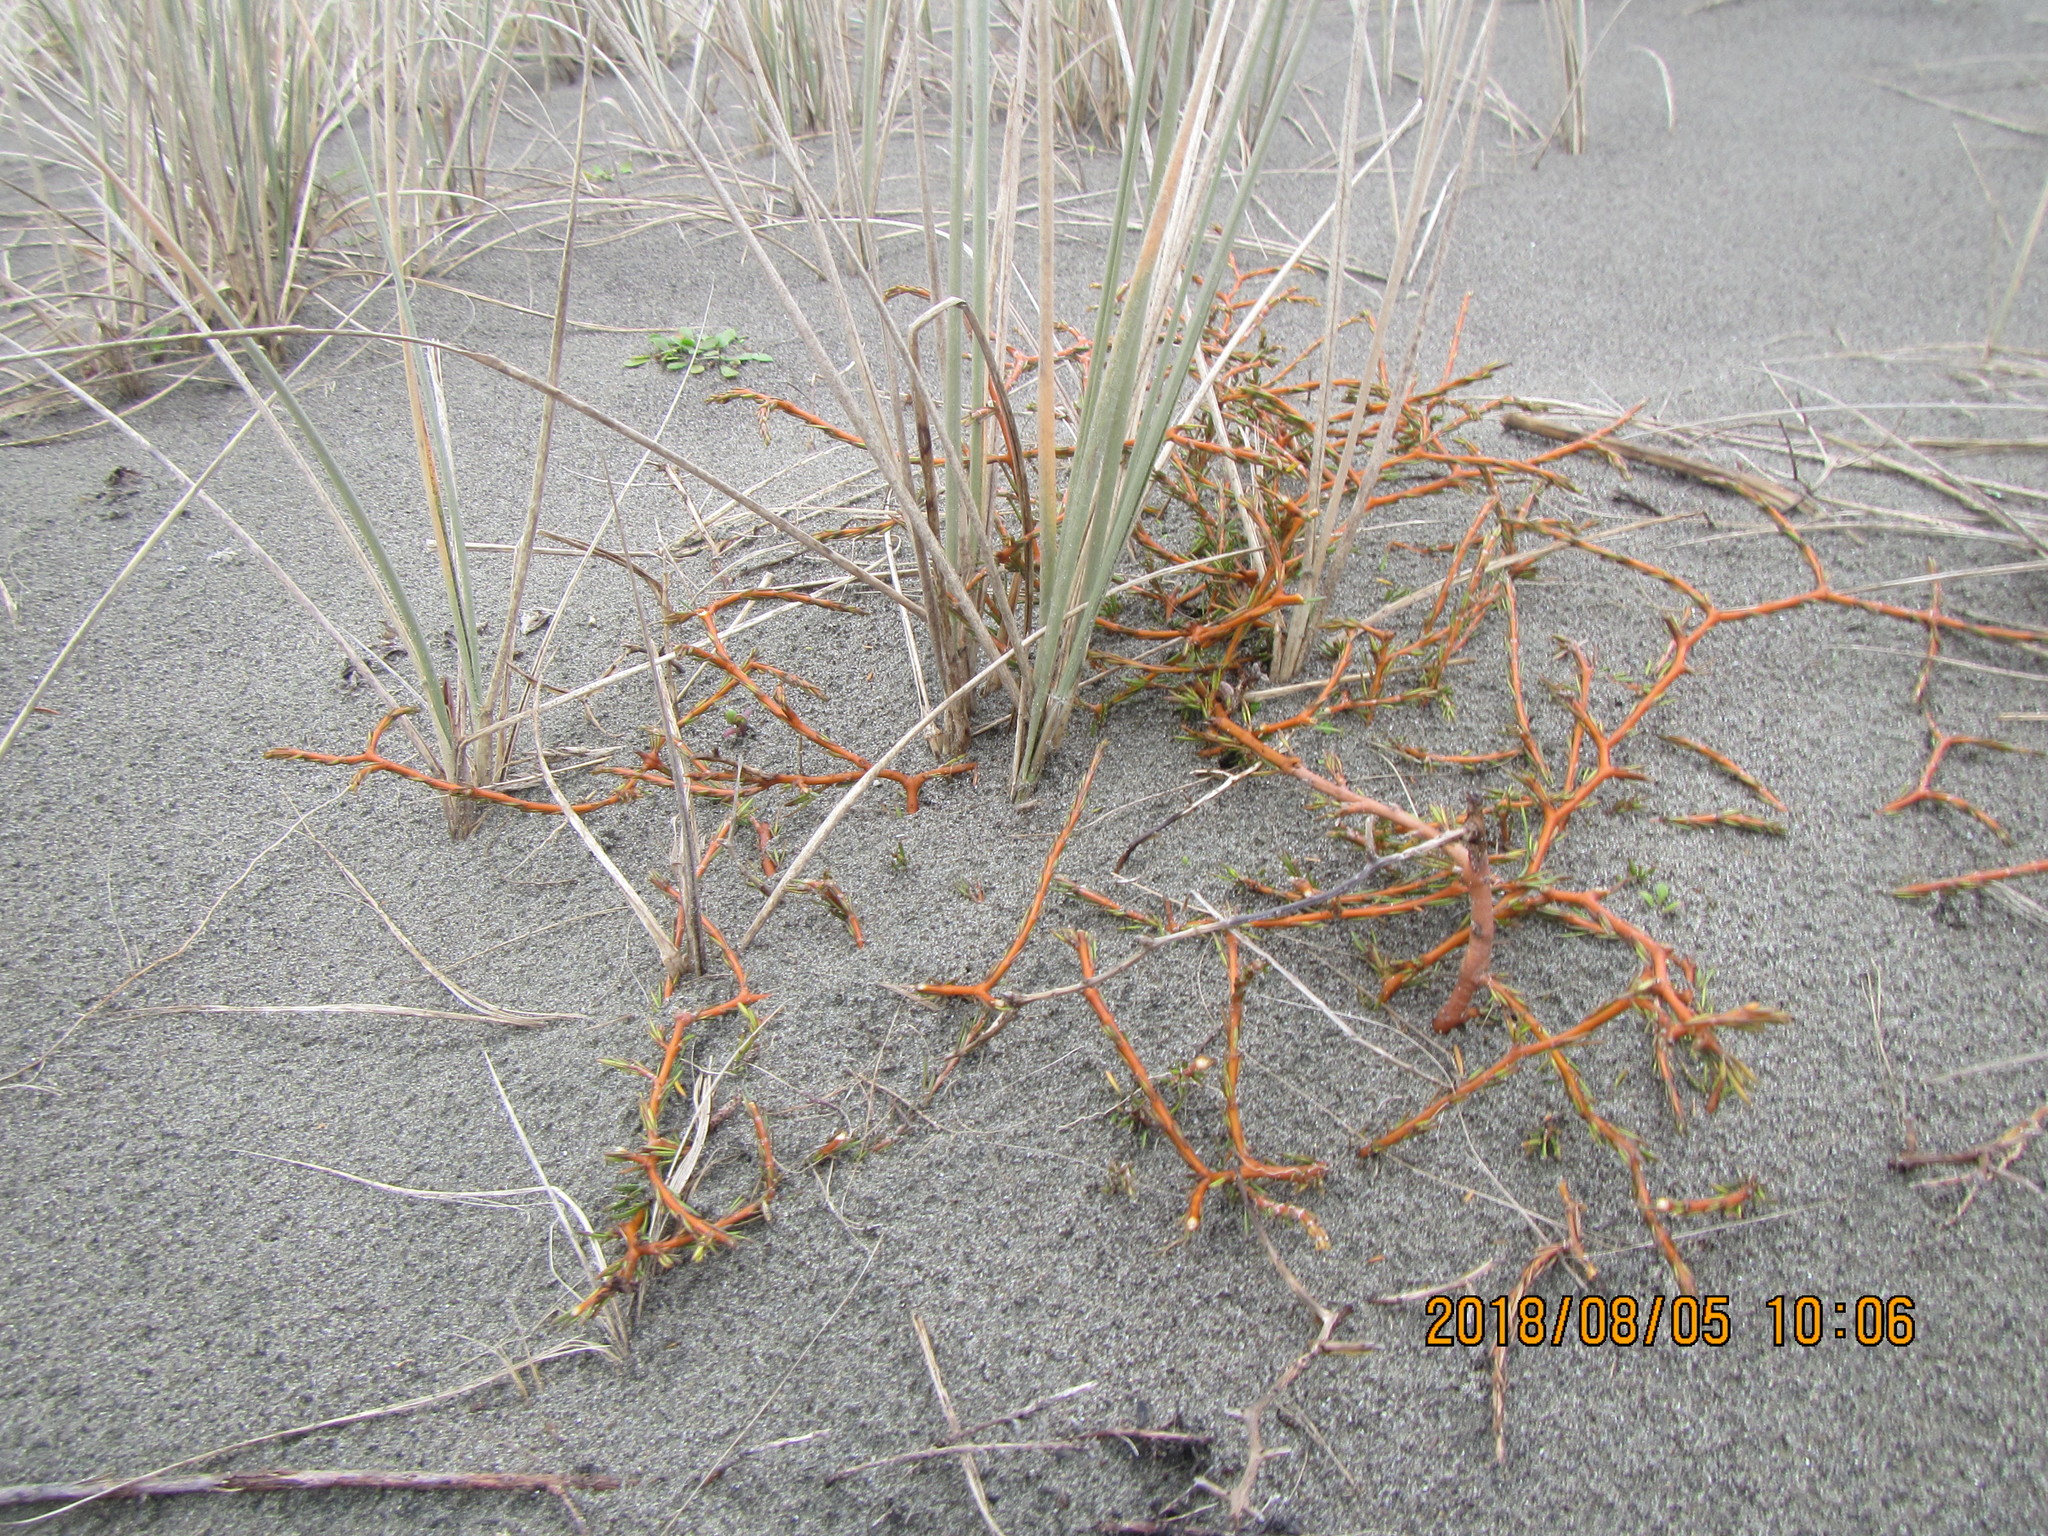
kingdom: Plantae
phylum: Tracheophyta
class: Magnoliopsida
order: Gentianales
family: Rubiaceae
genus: Coprosma
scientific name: Coprosma acerosa
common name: Sand coprosma
